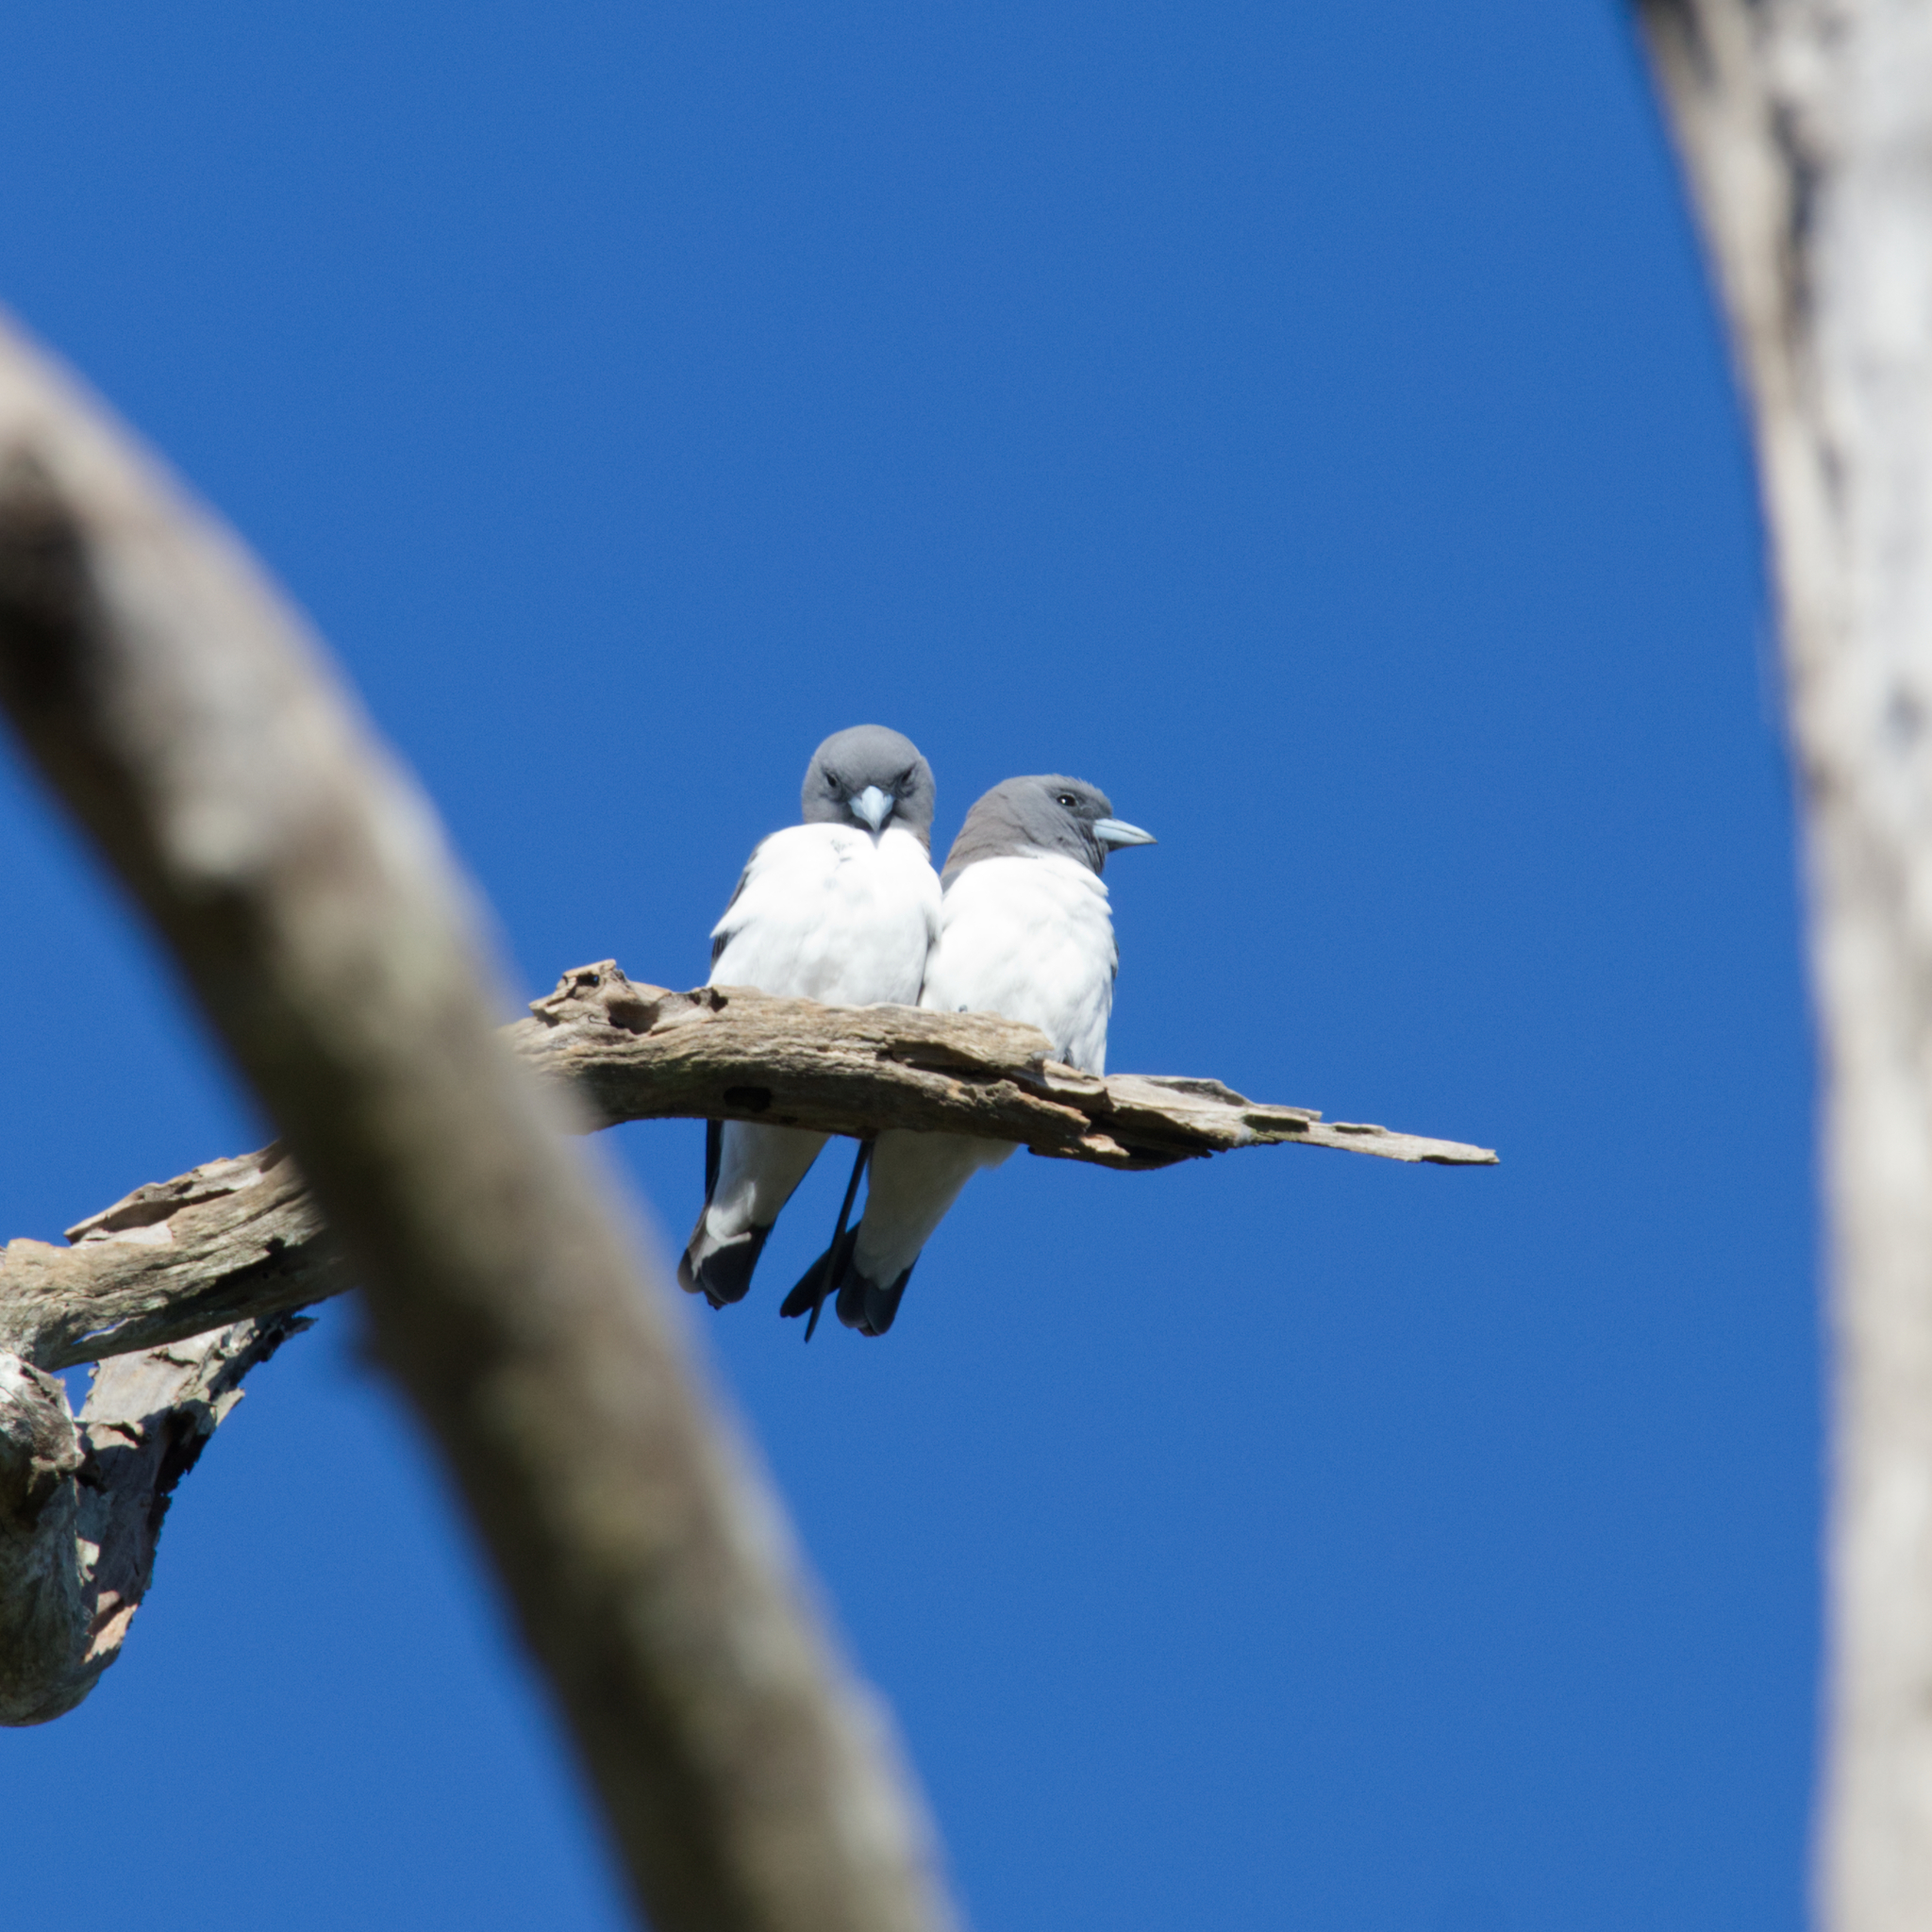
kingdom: Animalia
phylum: Chordata
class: Aves
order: Passeriformes
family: Artamidae
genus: Artamus
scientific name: Artamus leucoryn
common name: White-breasted woodswallow
